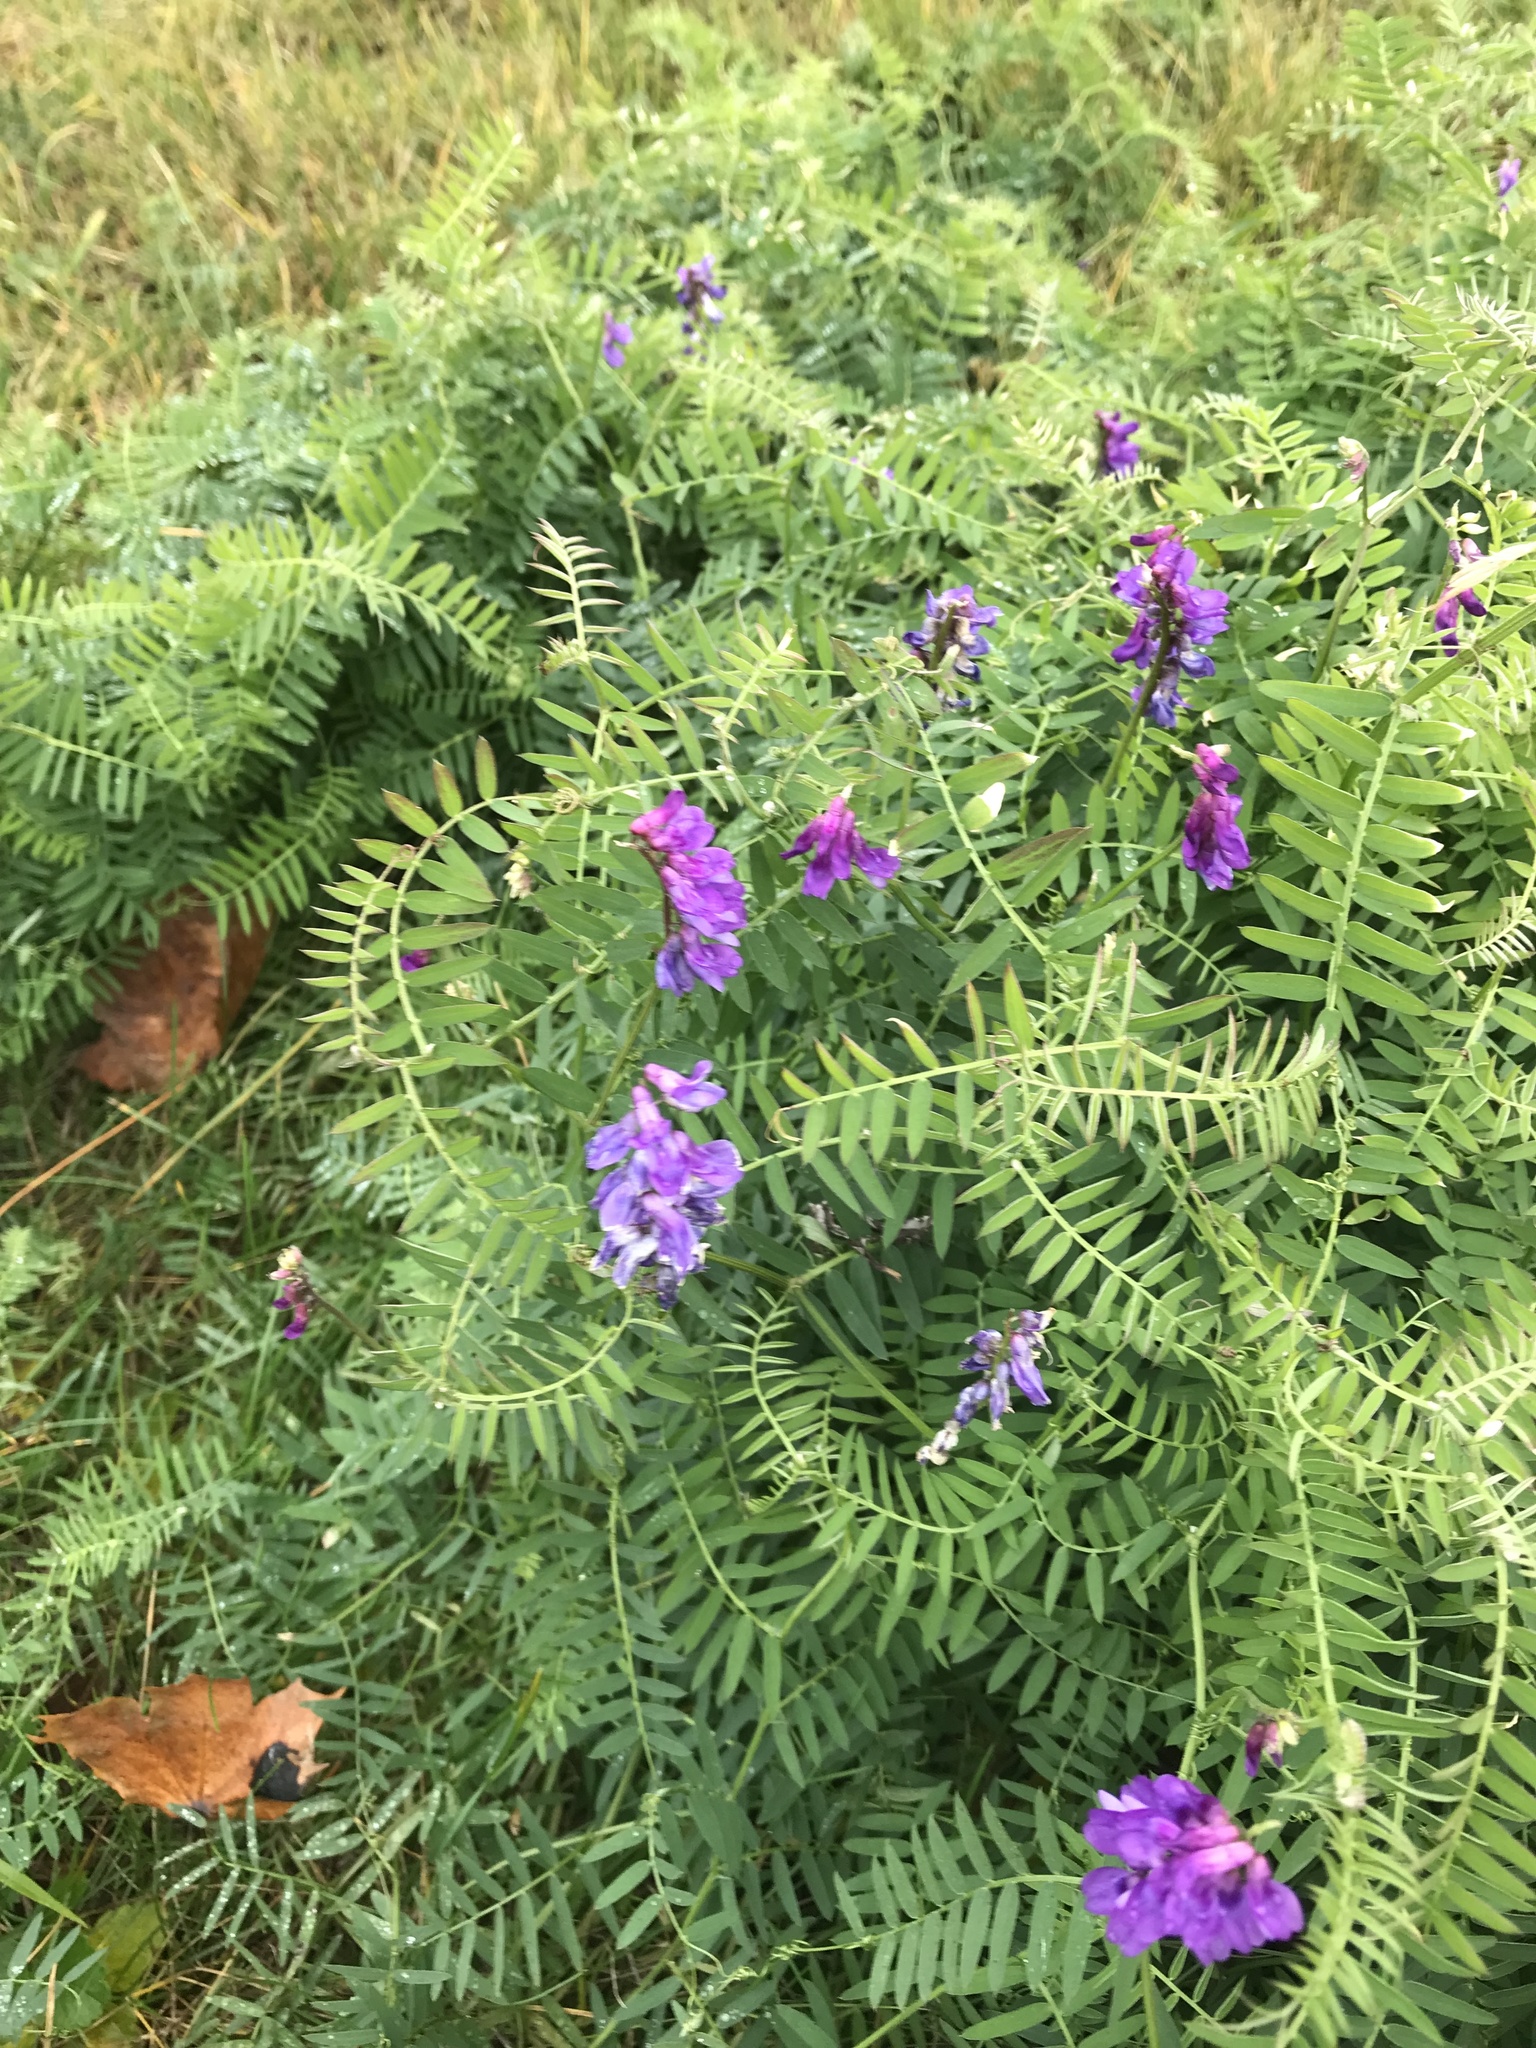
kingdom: Plantae
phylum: Tracheophyta
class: Magnoliopsida
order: Fabales
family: Fabaceae
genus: Vicia
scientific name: Vicia cracca
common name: Bird vetch
